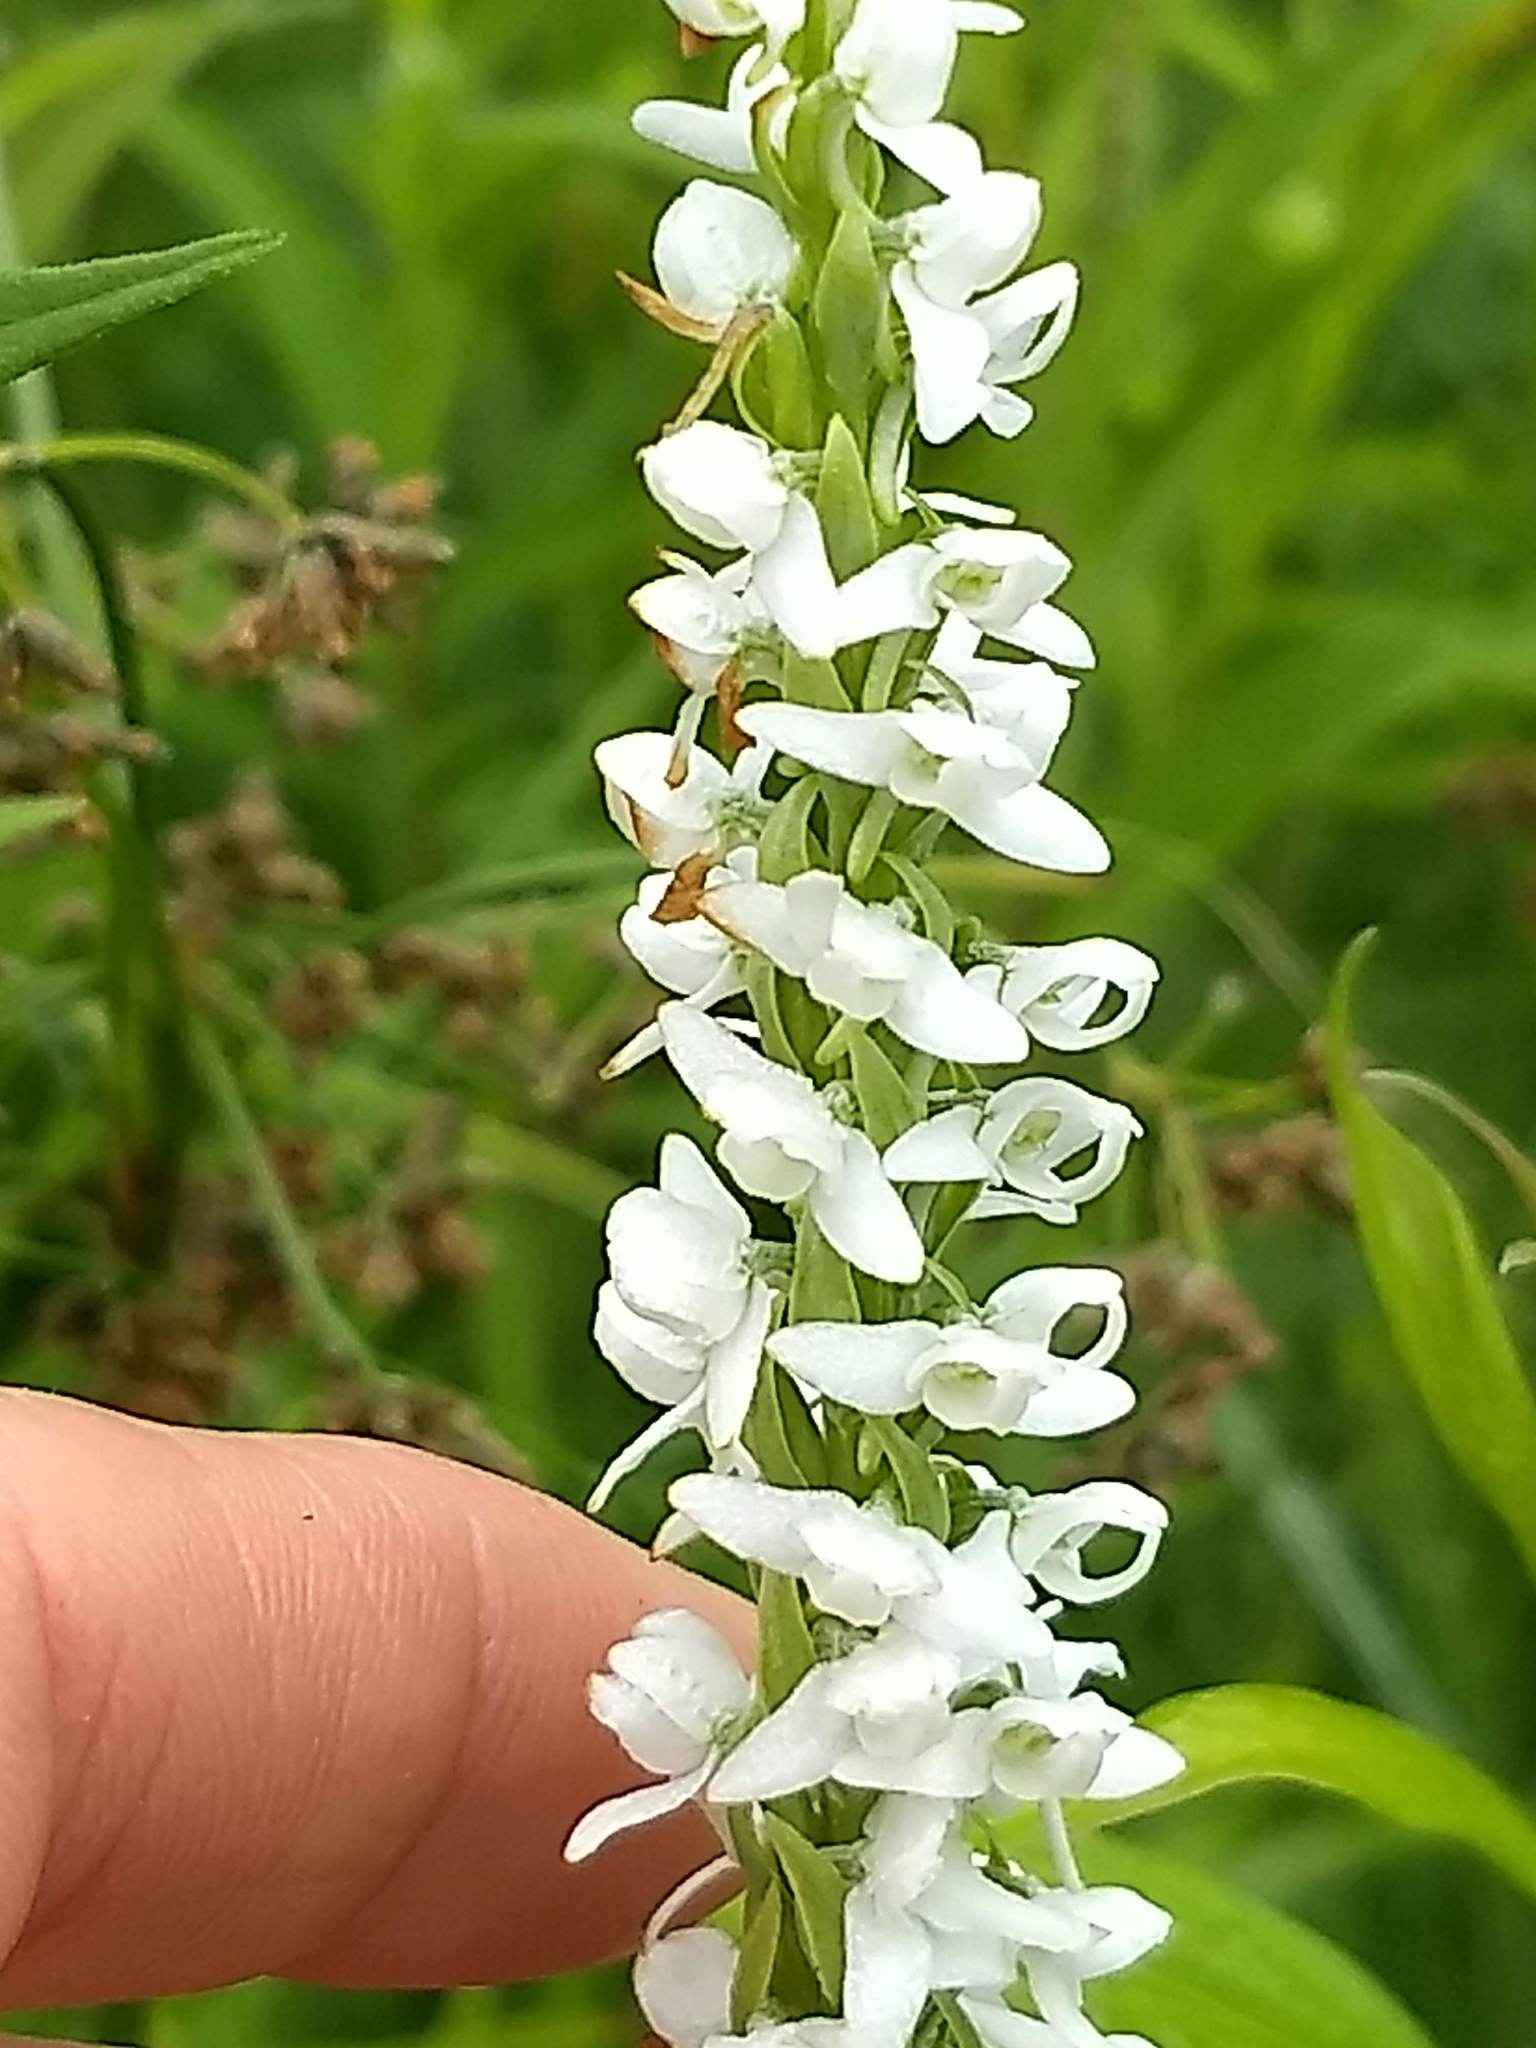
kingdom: Plantae
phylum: Tracheophyta
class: Liliopsida
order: Asparagales
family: Orchidaceae
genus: Platanthera
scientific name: Platanthera dilatata
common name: Bog candles
